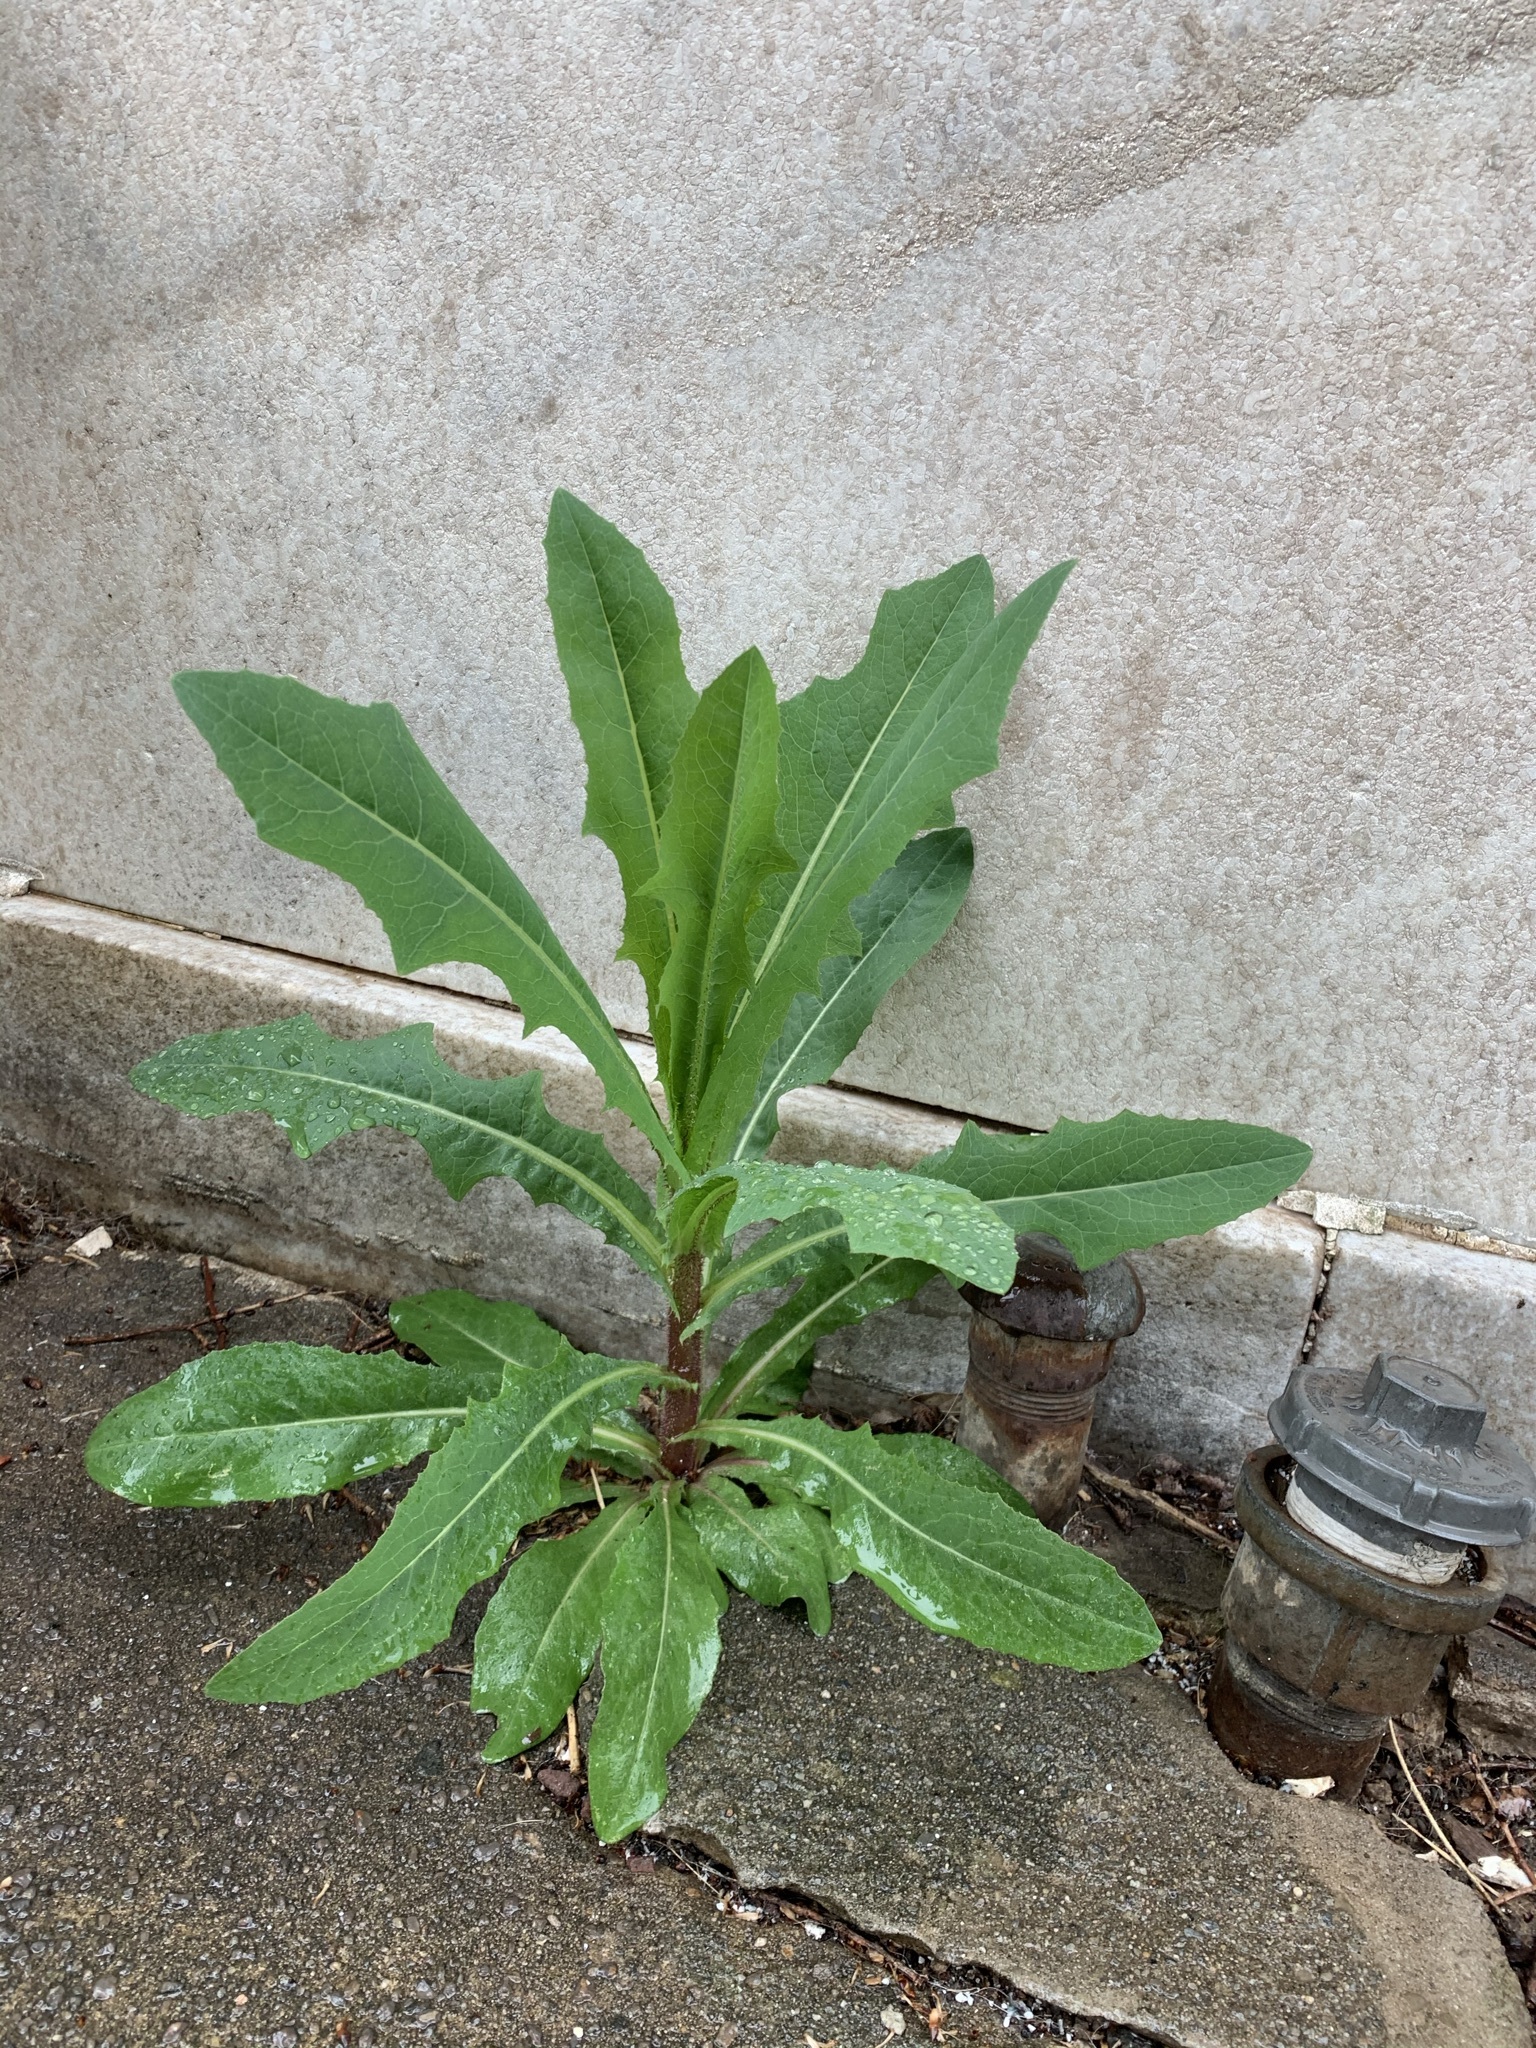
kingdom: Plantae
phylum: Tracheophyta
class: Magnoliopsida
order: Asterales
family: Asteraceae
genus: Lactuca
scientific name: Lactuca serriola
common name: Prickly lettuce
